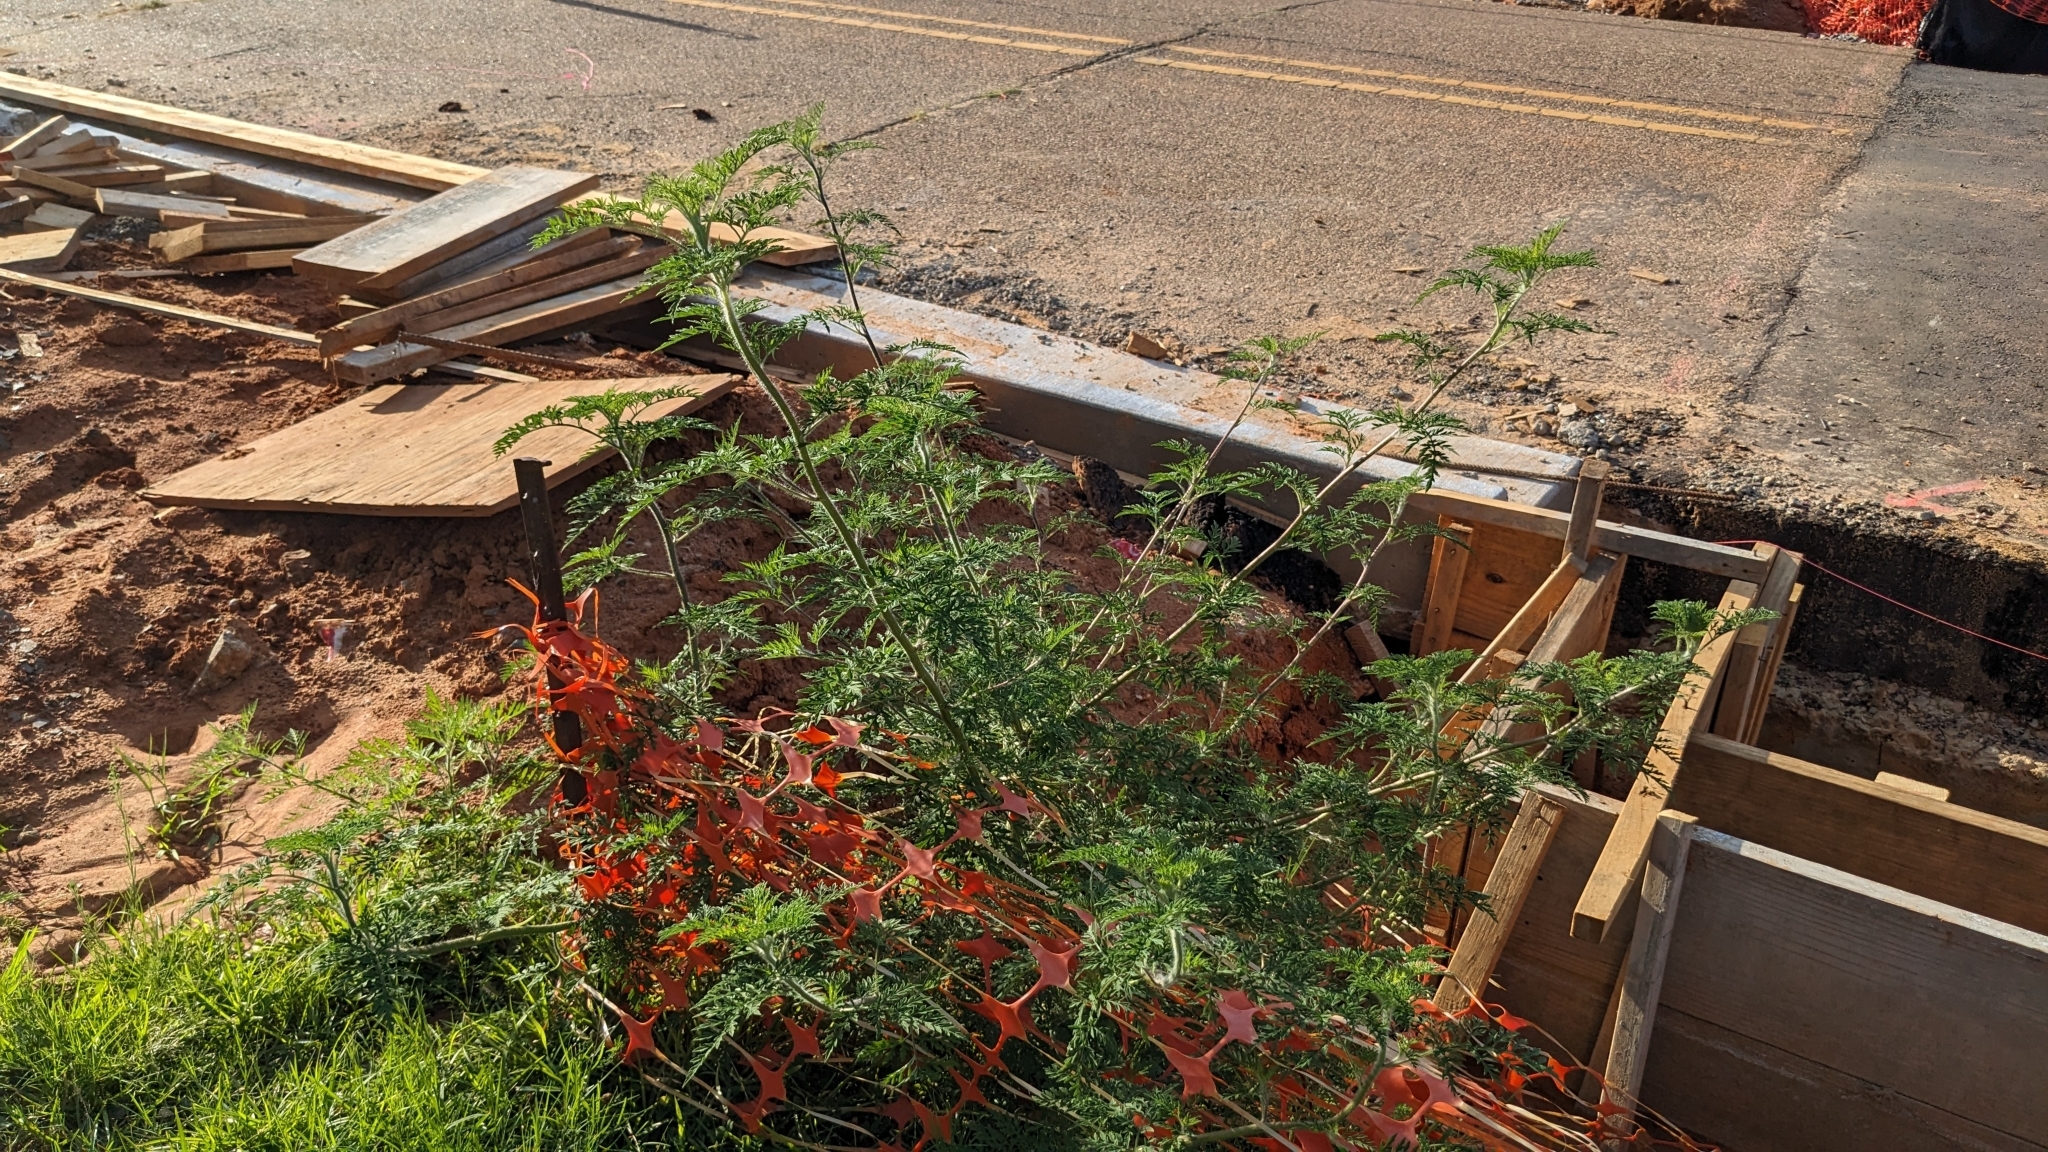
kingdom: Plantae
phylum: Tracheophyta
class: Magnoliopsida
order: Asterales
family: Asteraceae
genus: Ambrosia
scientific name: Ambrosia artemisiifolia
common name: Annual ragweed
